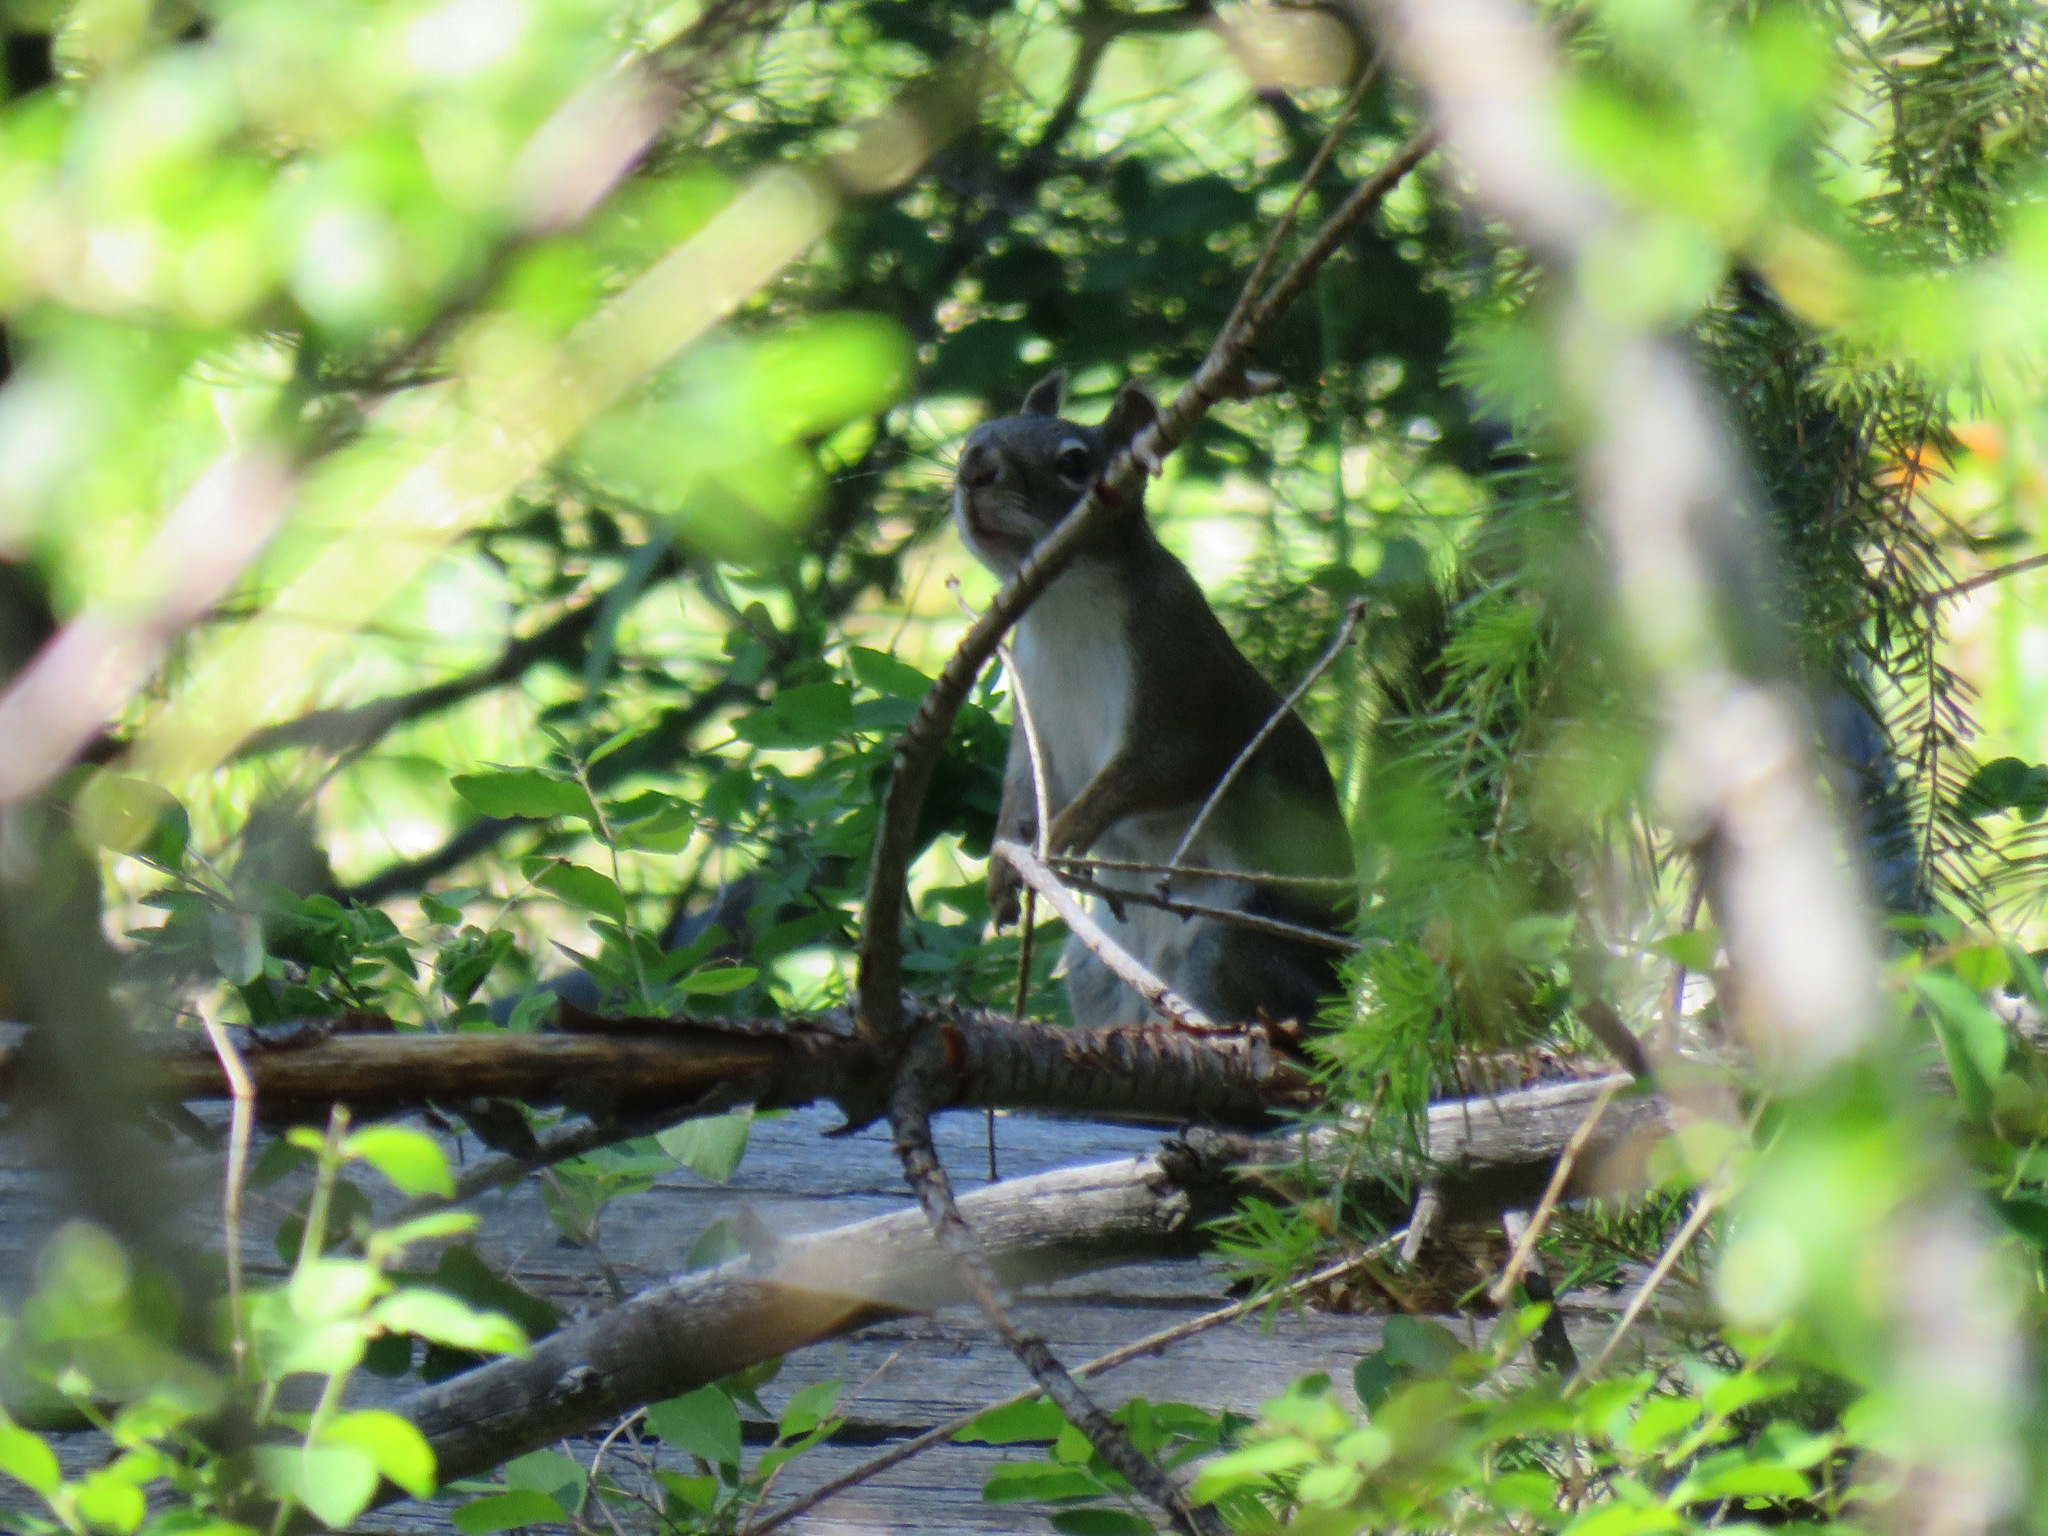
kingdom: Animalia
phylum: Chordata
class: Mammalia
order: Rodentia
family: Sciuridae
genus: Tamiasciurus
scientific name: Tamiasciurus hudsonicus
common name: Red squirrel
